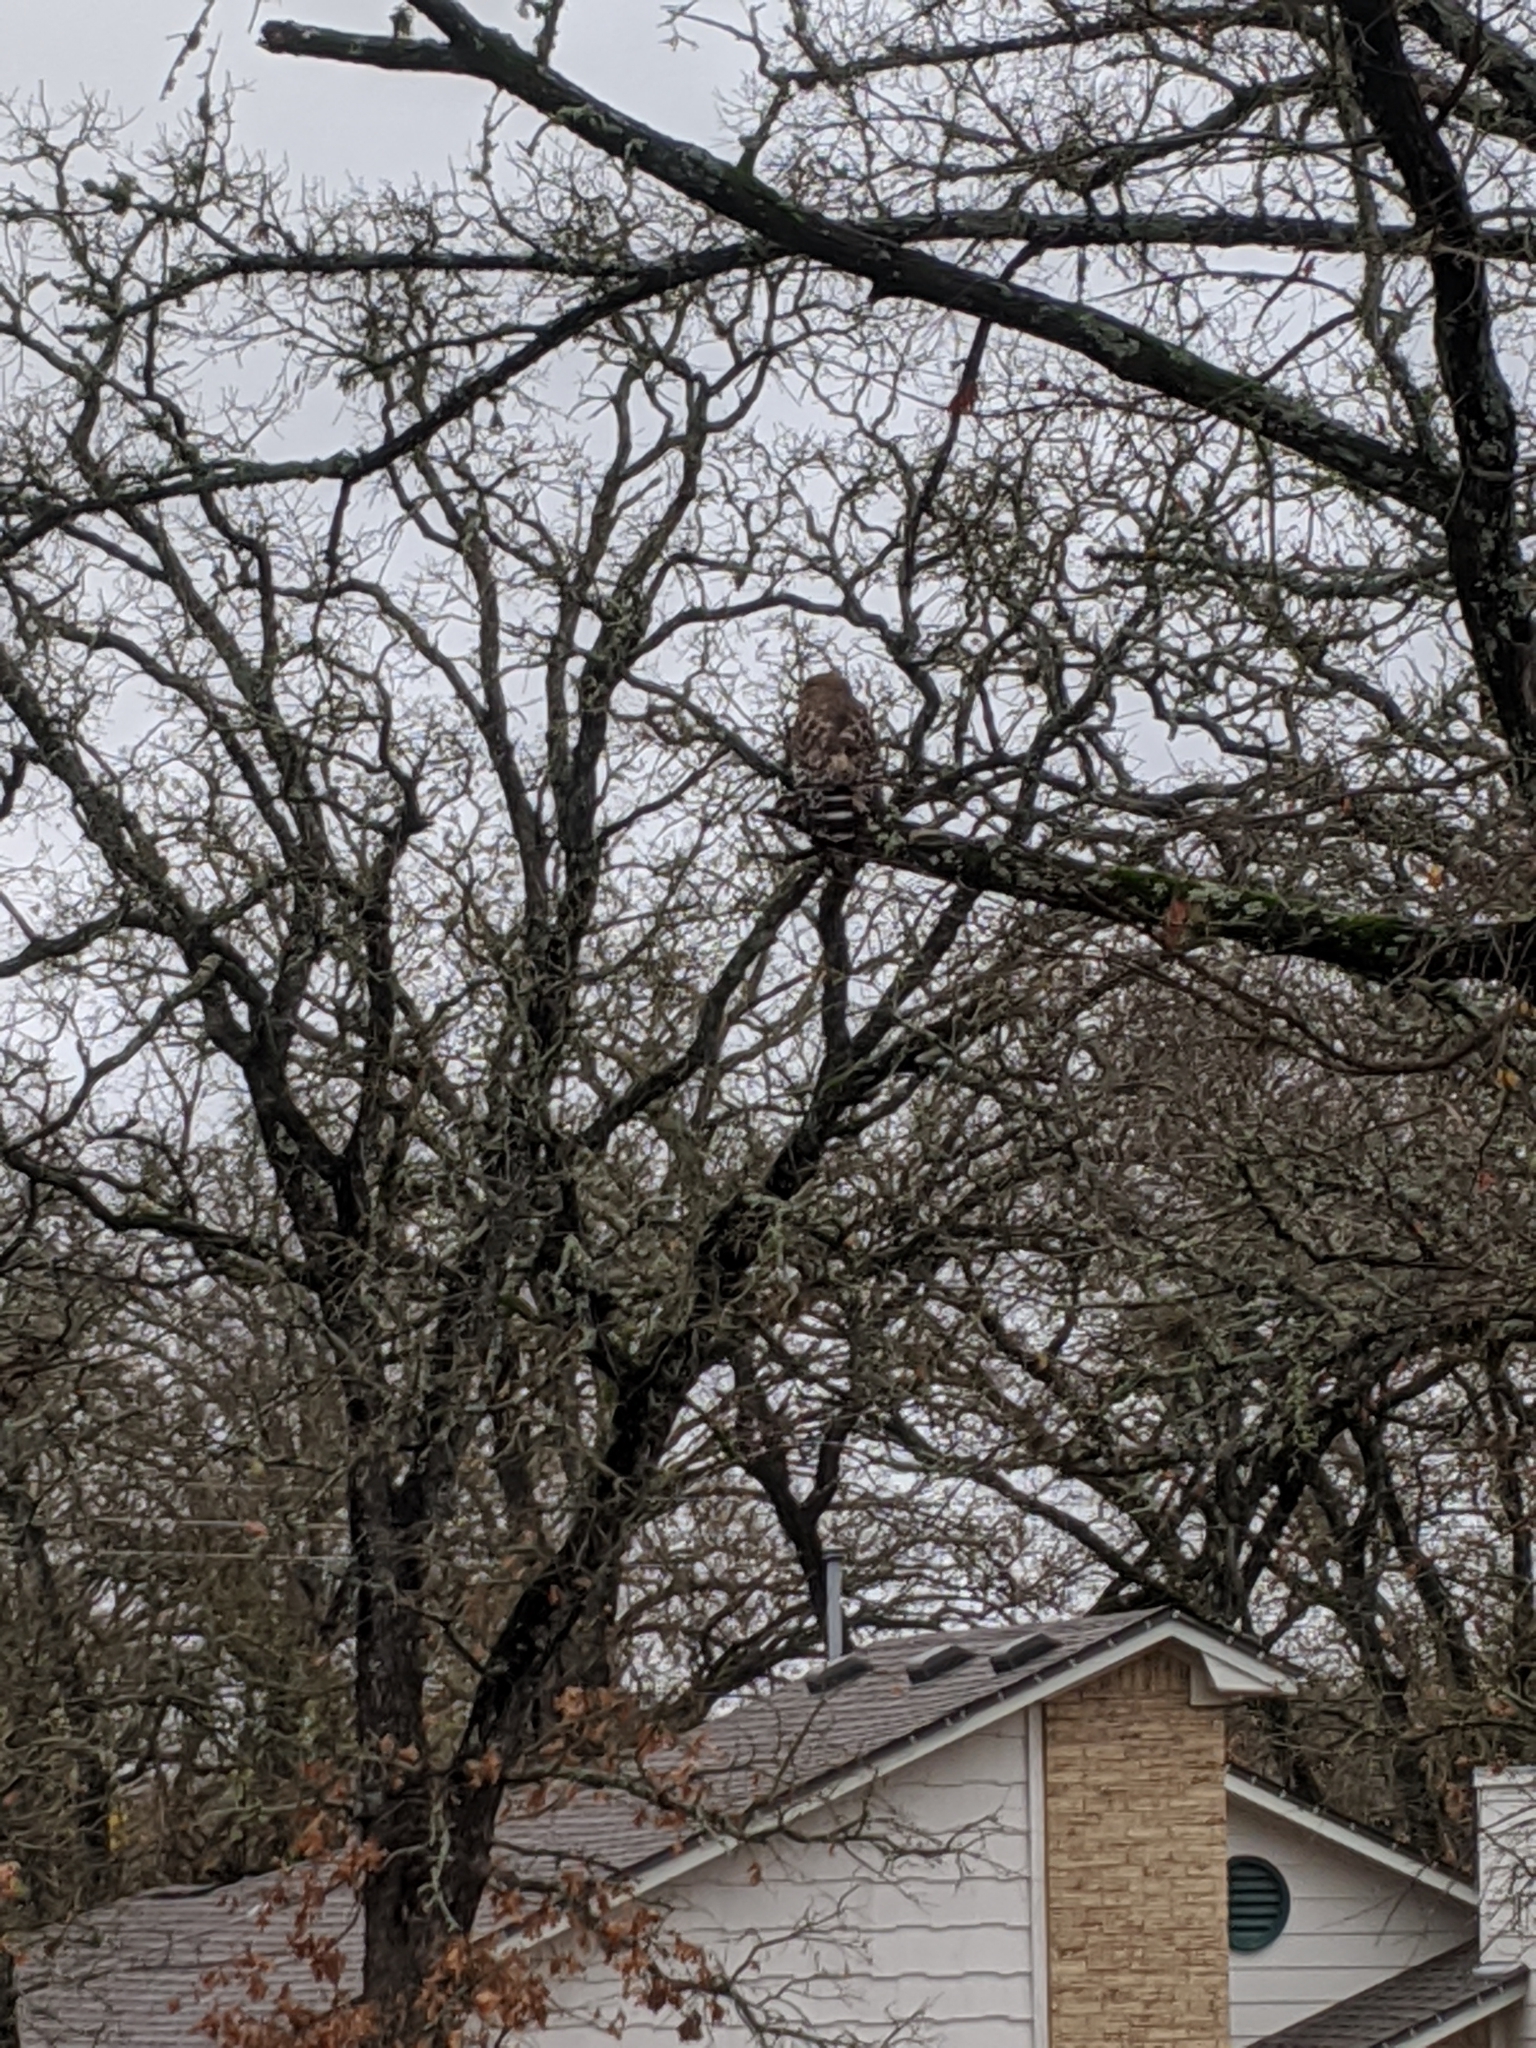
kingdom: Animalia
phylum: Chordata
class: Aves
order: Accipitriformes
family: Accipitridae
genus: Buteo
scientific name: Buteo lineatus
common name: Red-shouldered hawk
